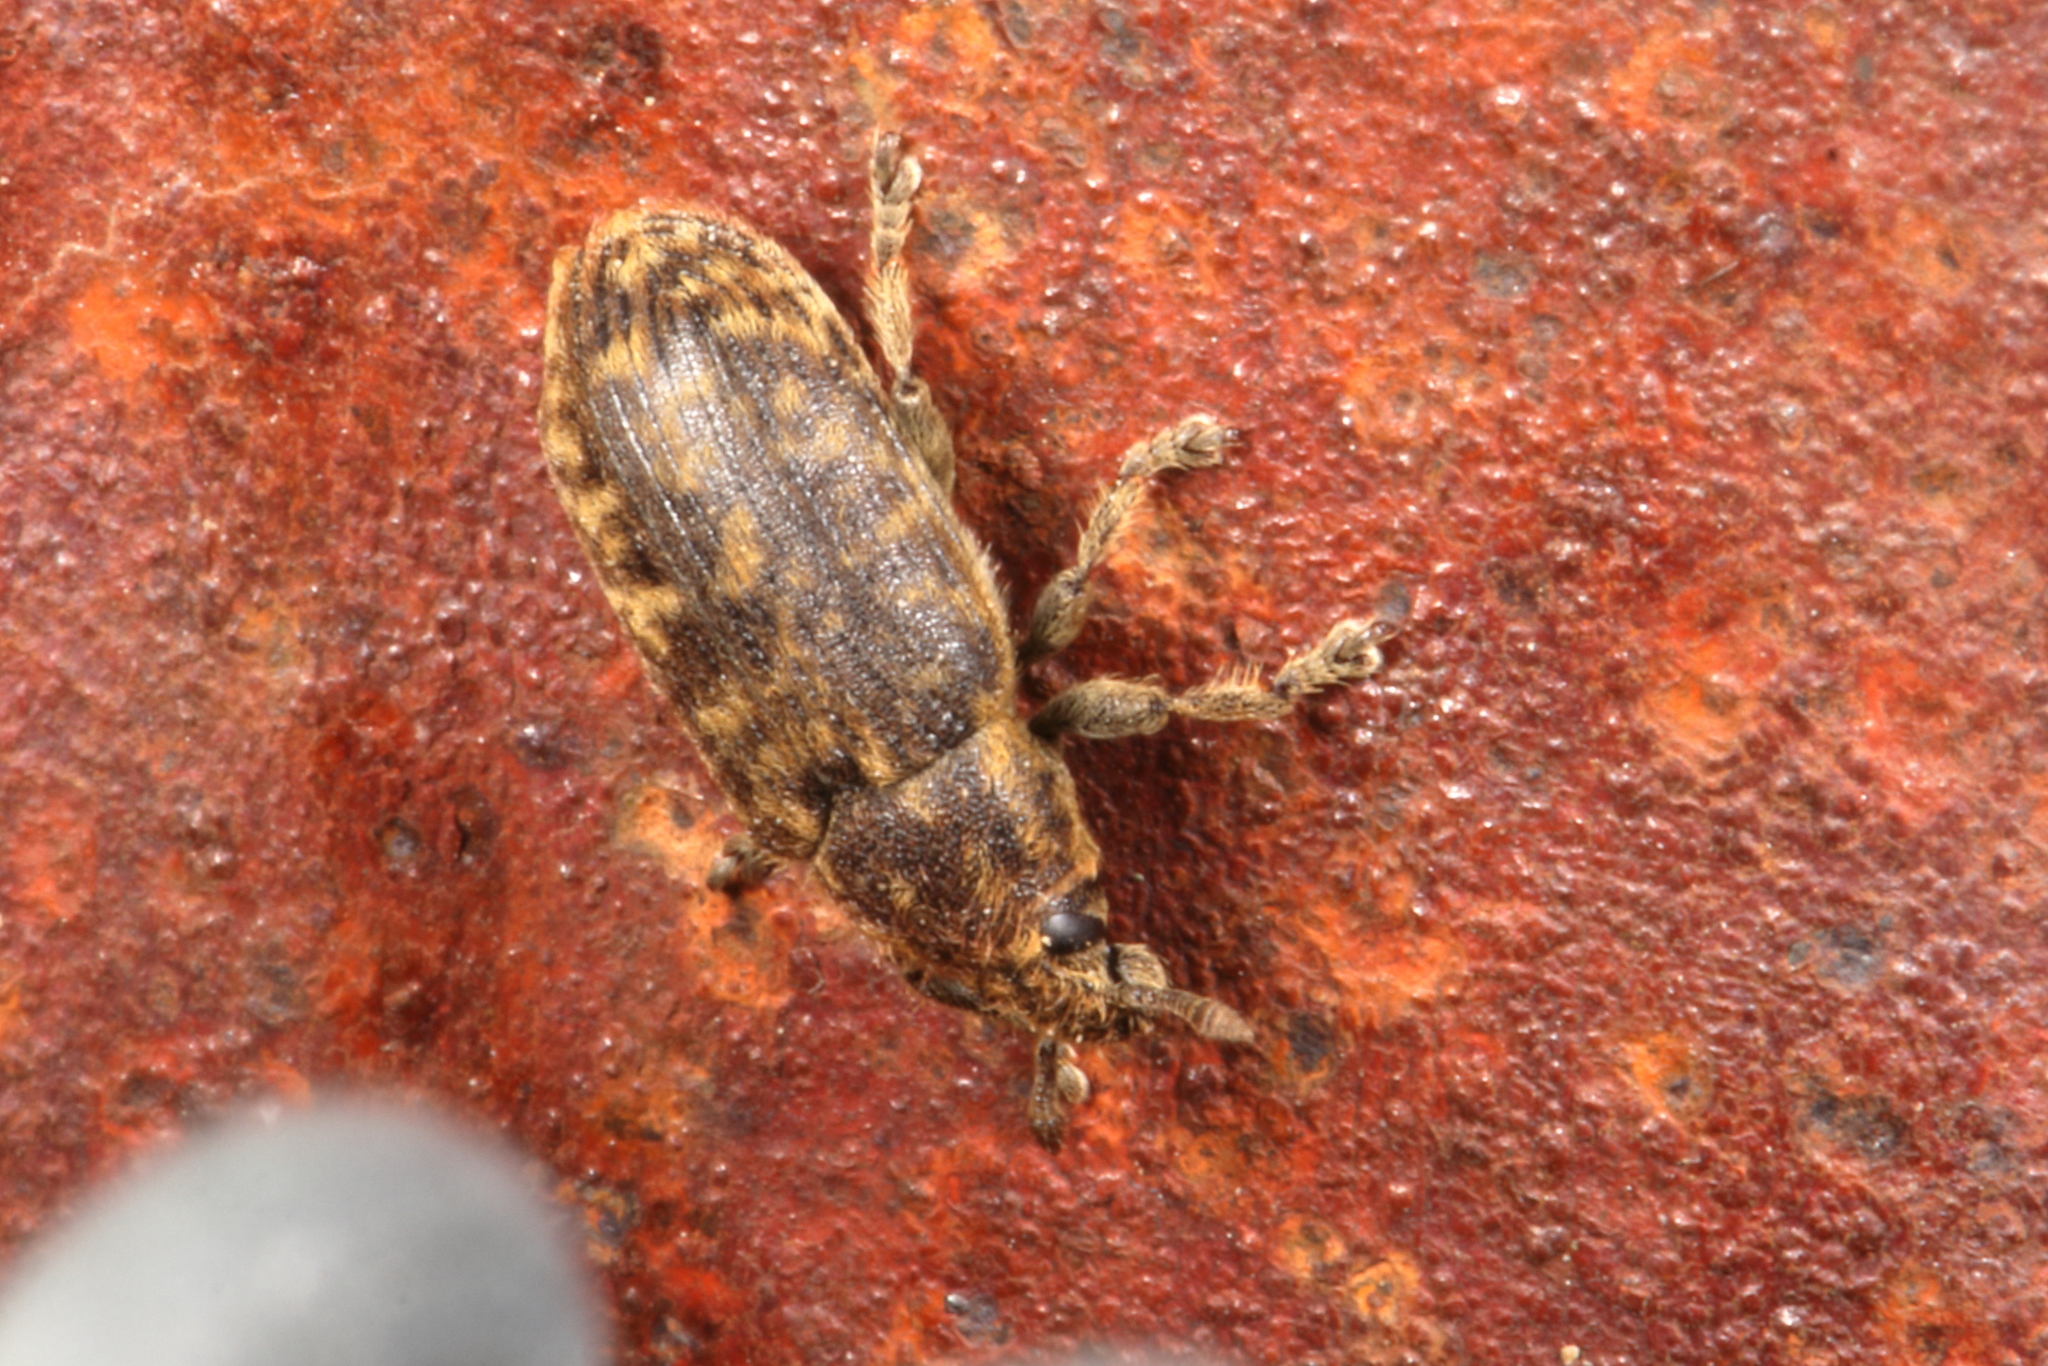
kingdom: Animalia
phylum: Arthropoda
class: Insecta
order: Coleoptera
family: Curculionidae
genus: Rhinocyllus
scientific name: Rhinocyllus conicus
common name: Weevil
